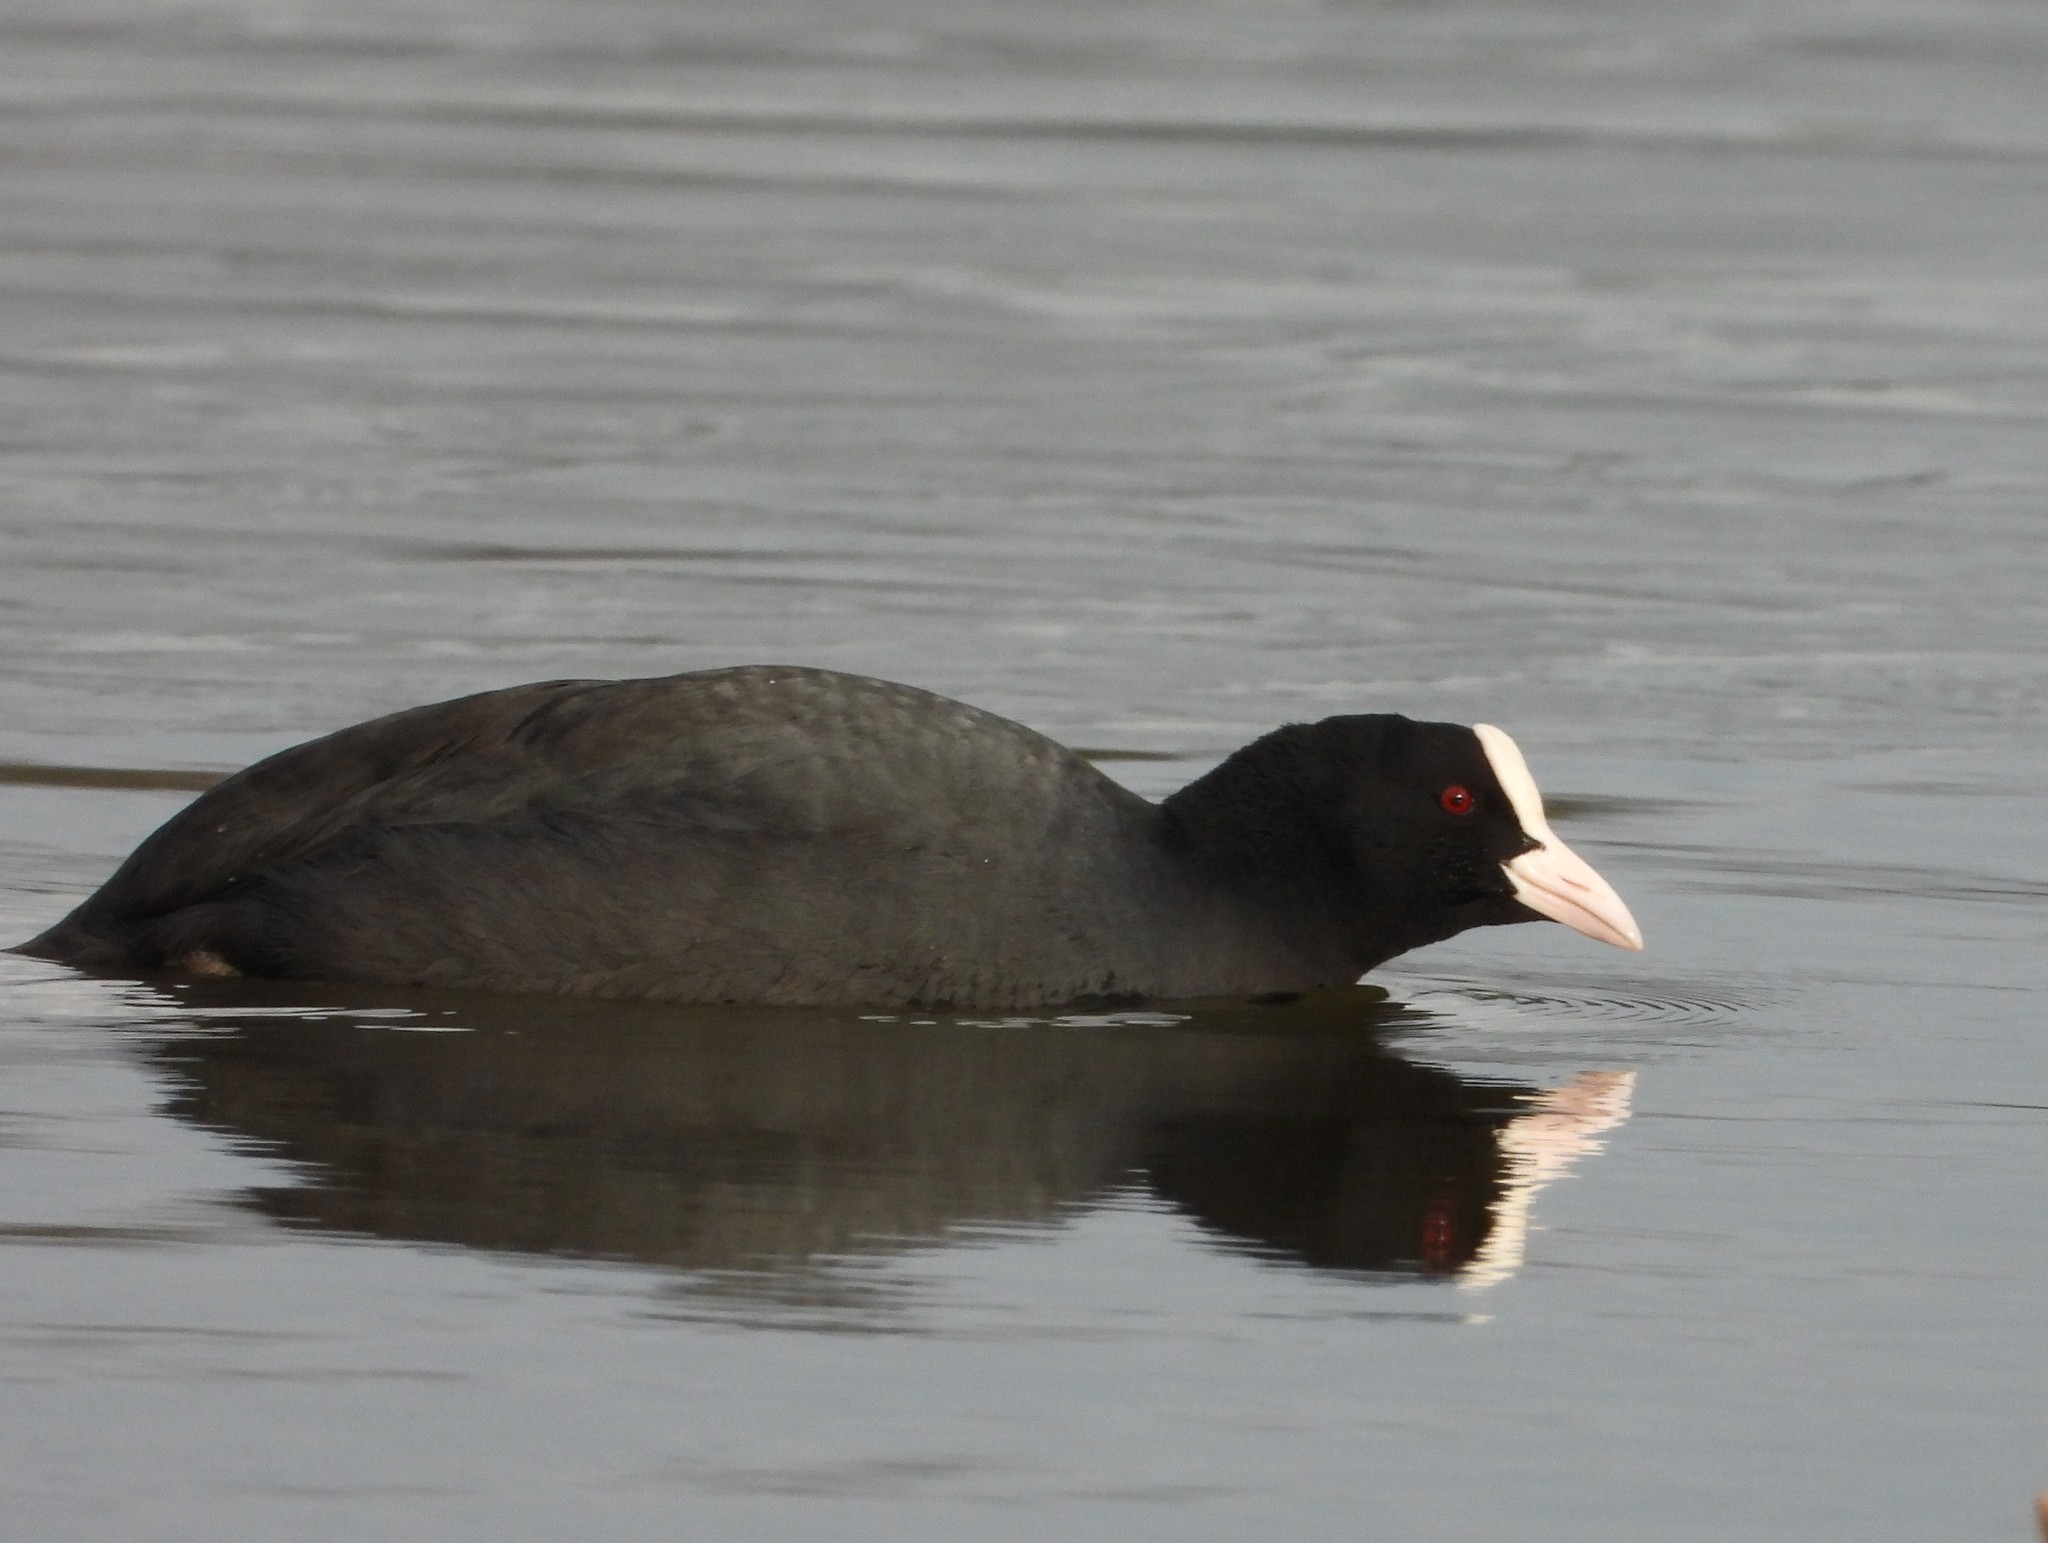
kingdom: Animalia
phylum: Chordata
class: Aves
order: Gruiformes
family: Rallidae
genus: Fulica
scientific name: Fulica atra
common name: Eurasian coot
